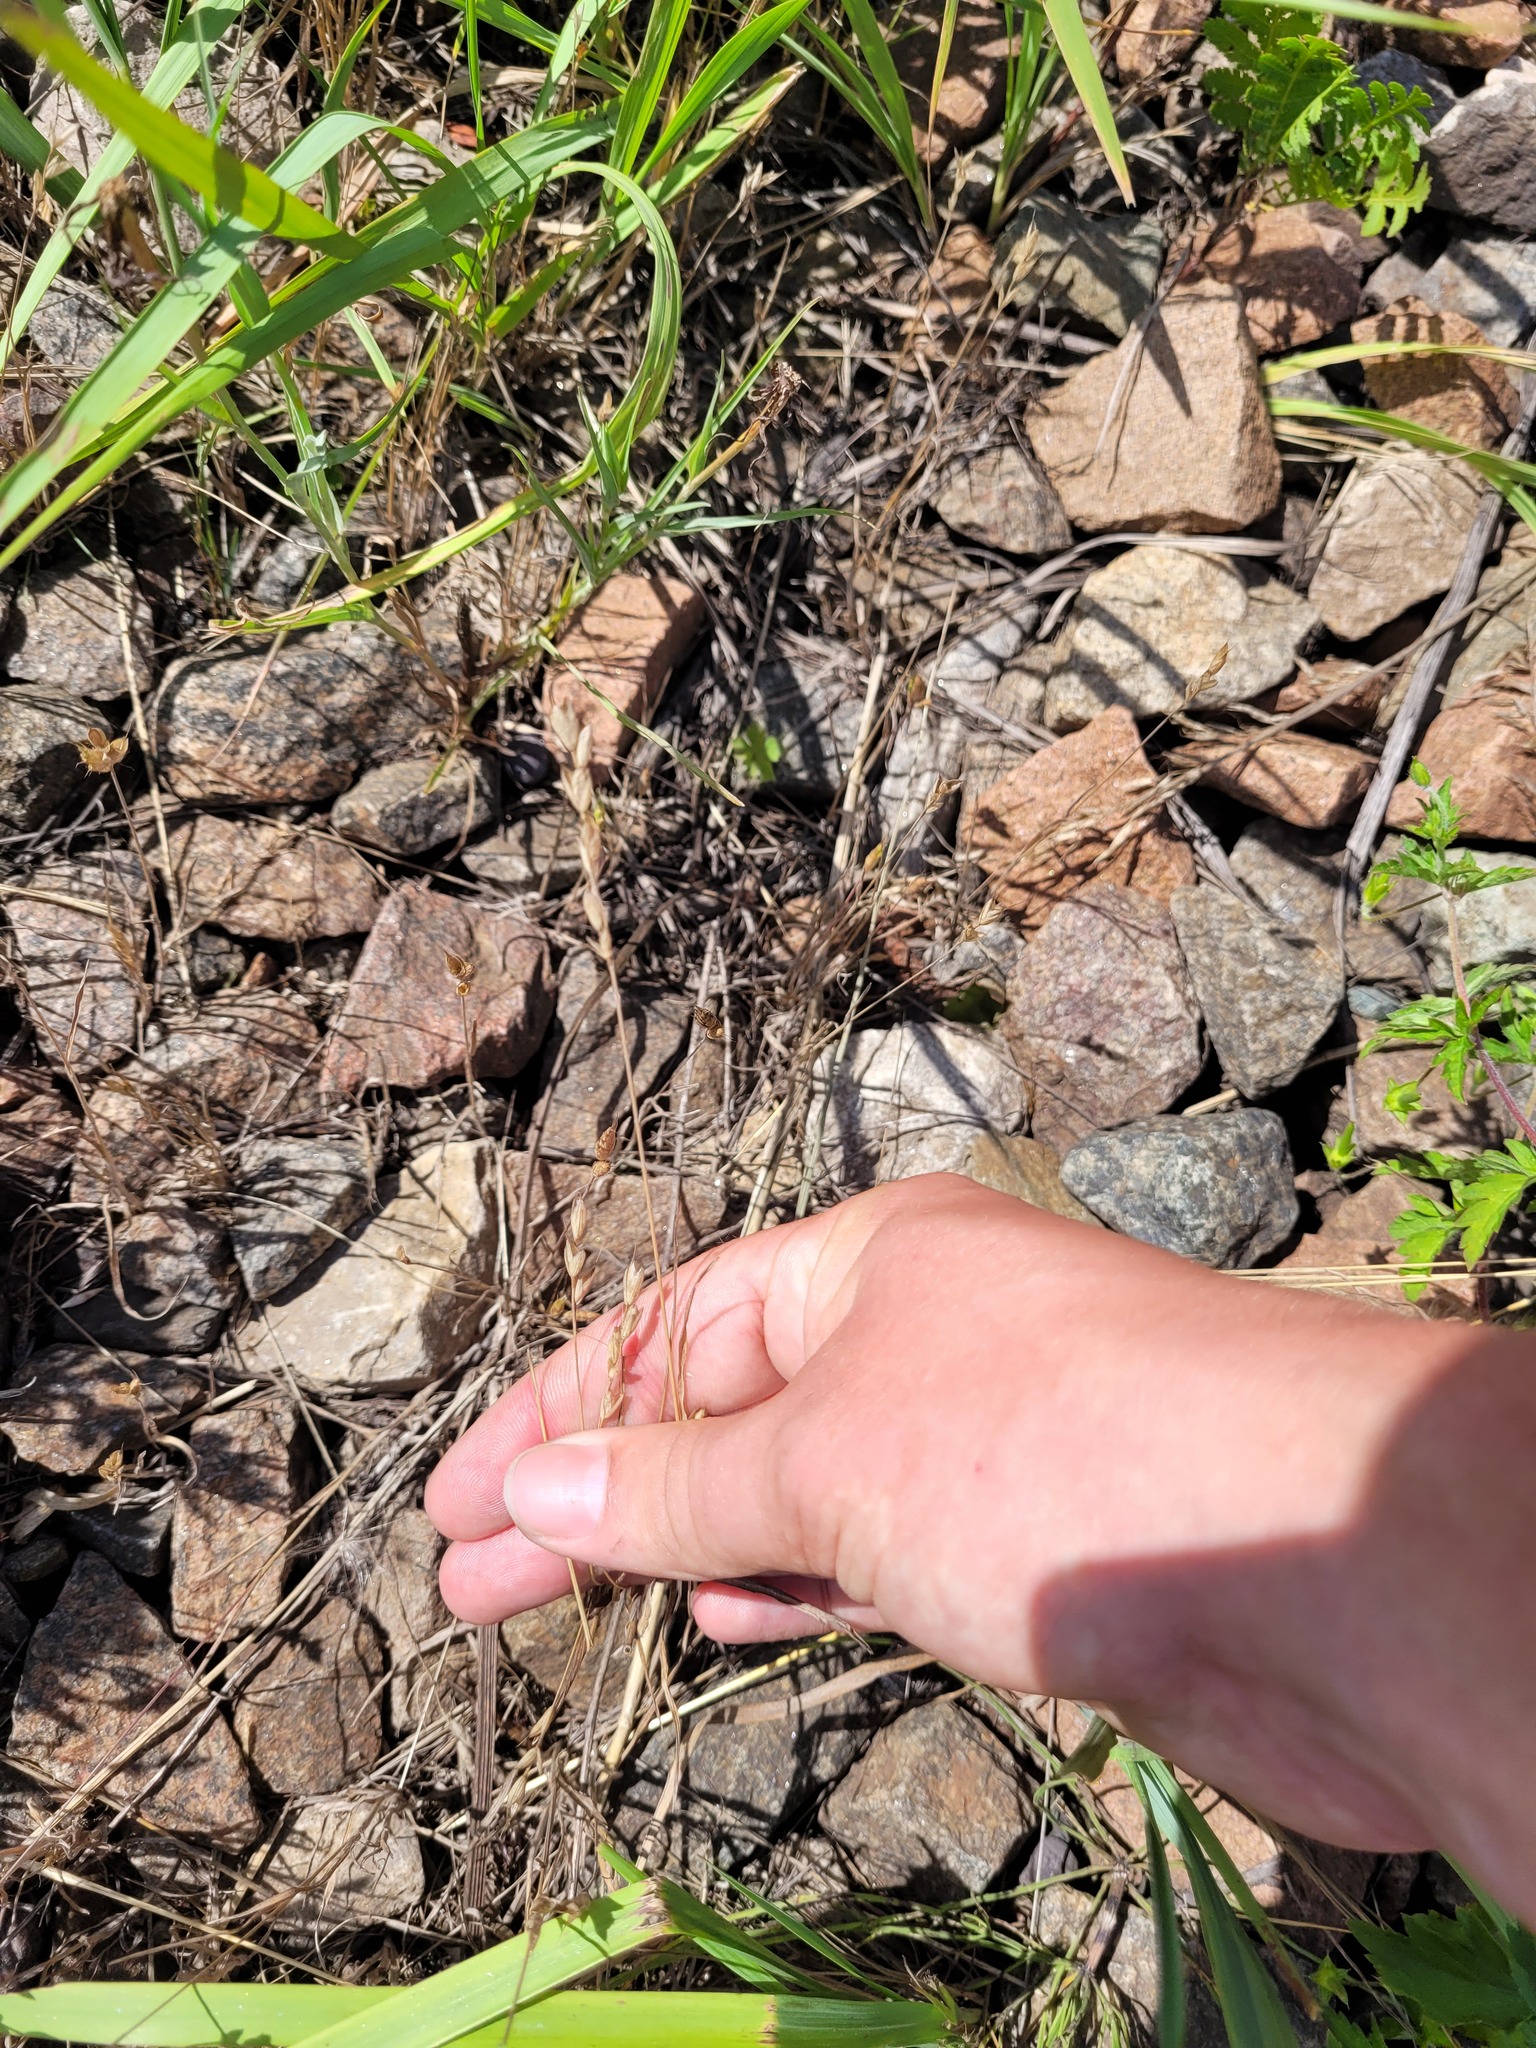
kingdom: Plantae
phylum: Tracheophyta
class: Liliopsida
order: Poales
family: Poaceae
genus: Bromus
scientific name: Bromus hordeaceus
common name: Soft brome
